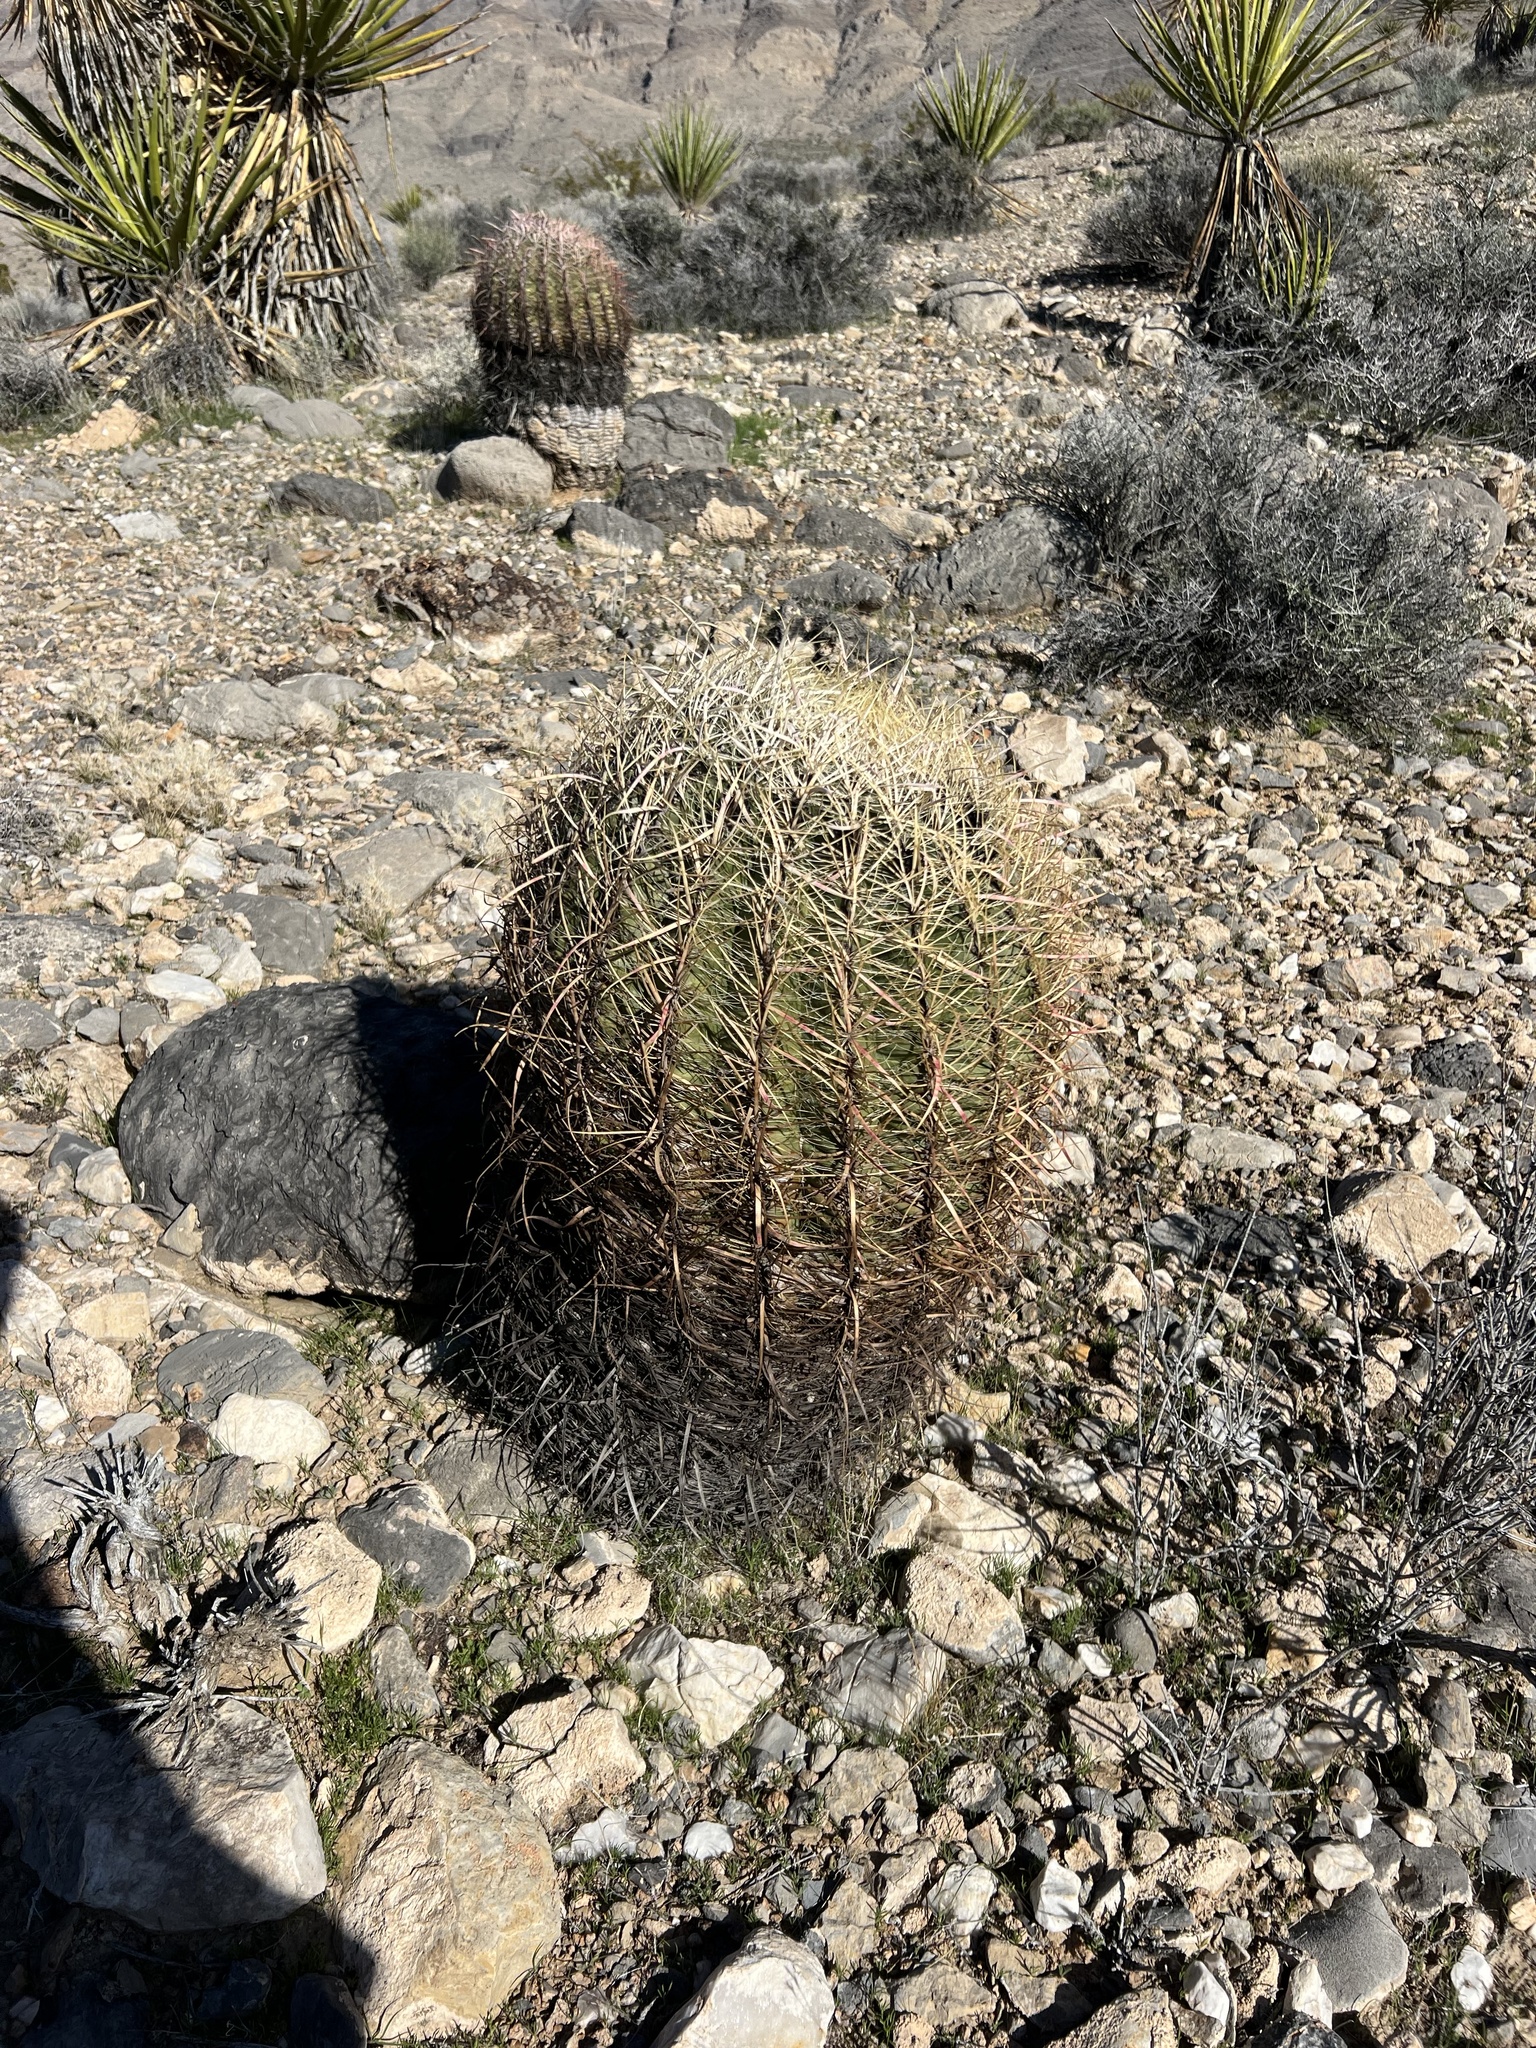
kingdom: Plantae
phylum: Tracheophyta
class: Magnoliopsida
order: Caryophyllales
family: Cactaceae
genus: Ferocactus
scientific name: Ferocactus cylindraceus
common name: California barrel cactus
